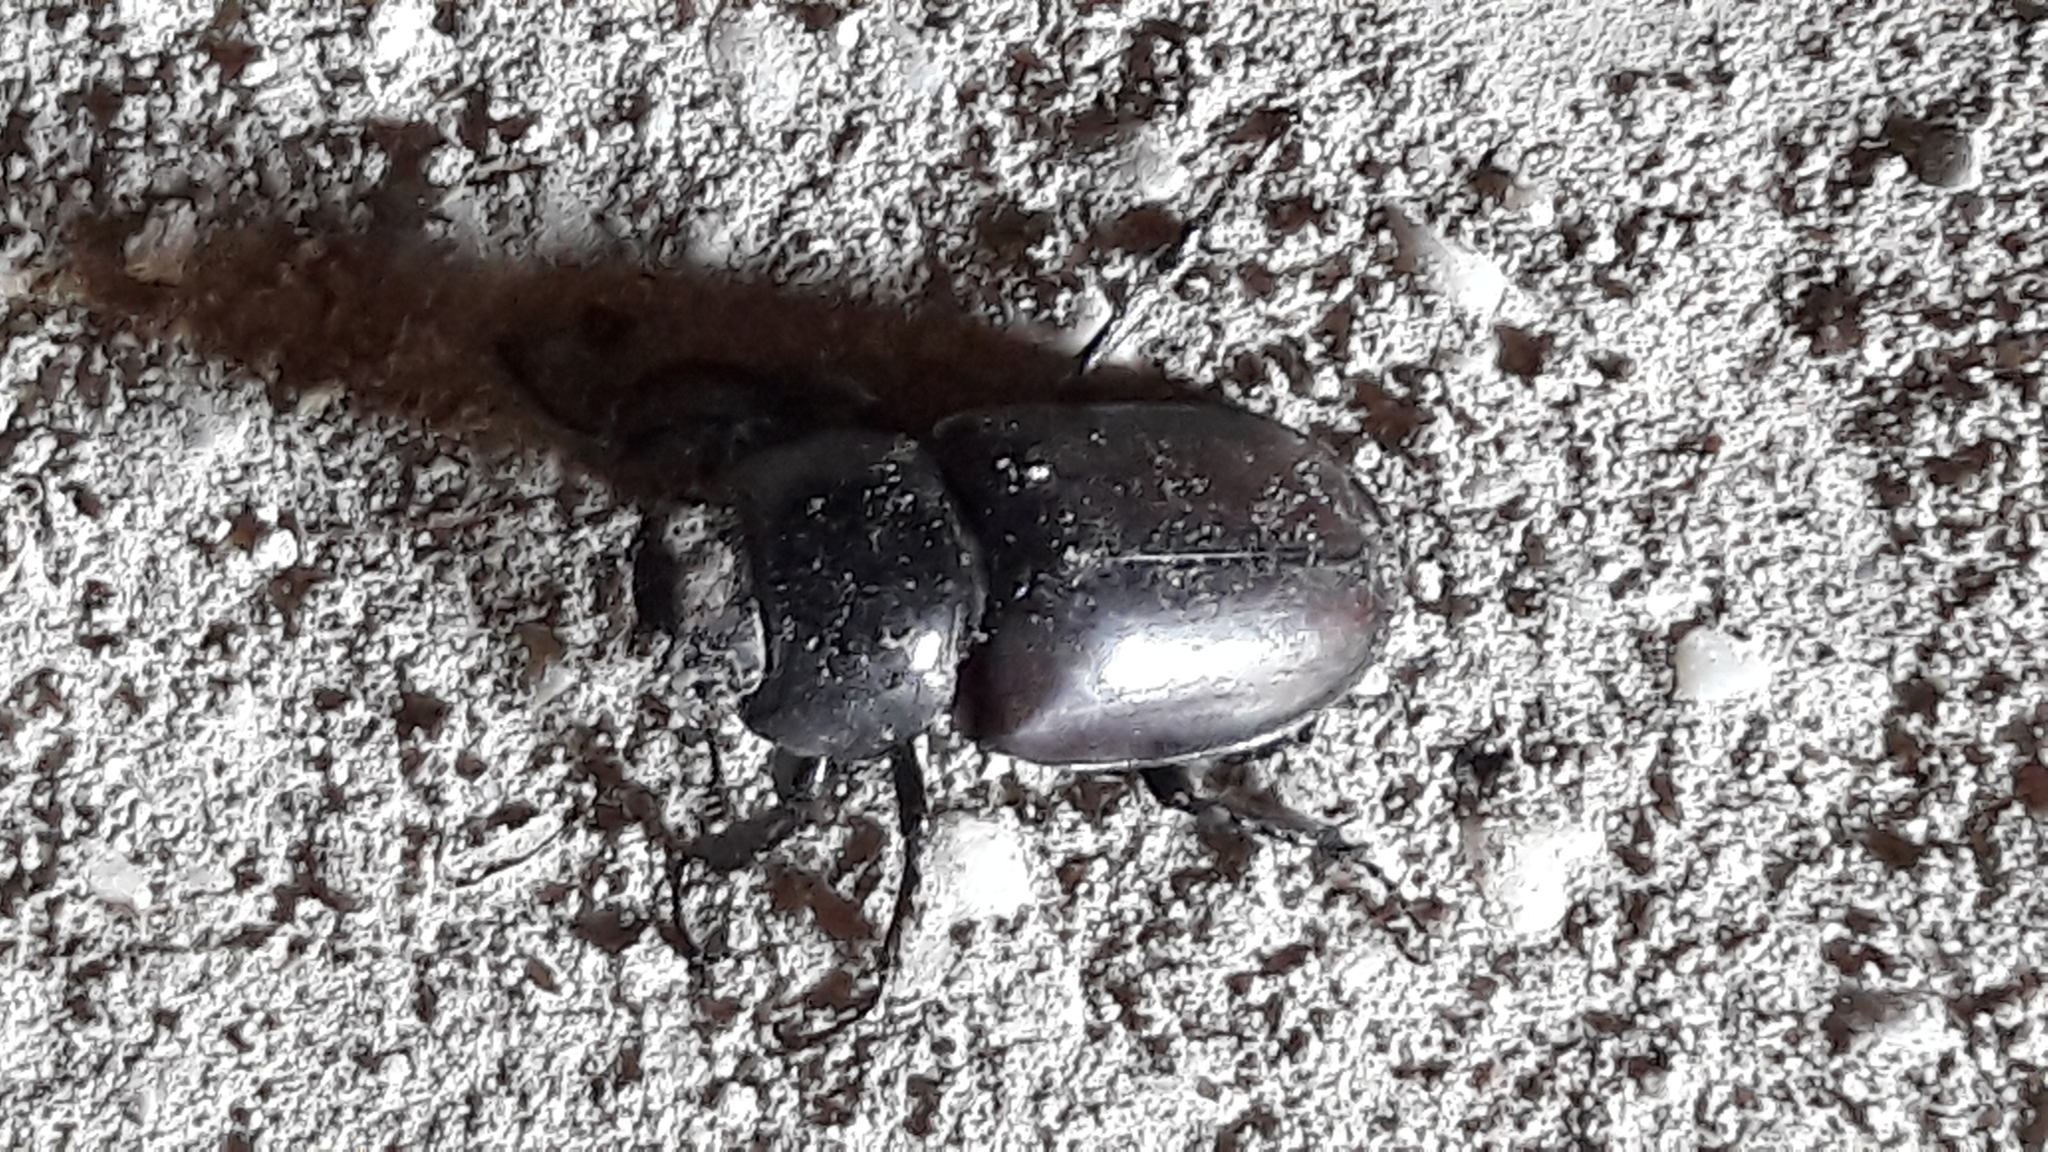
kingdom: Animalia
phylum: Arthropoda
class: Insecta
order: Coleoptera
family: Lucanidae
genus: Lucanus
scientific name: Lucanus cervus
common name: Stag beetle
